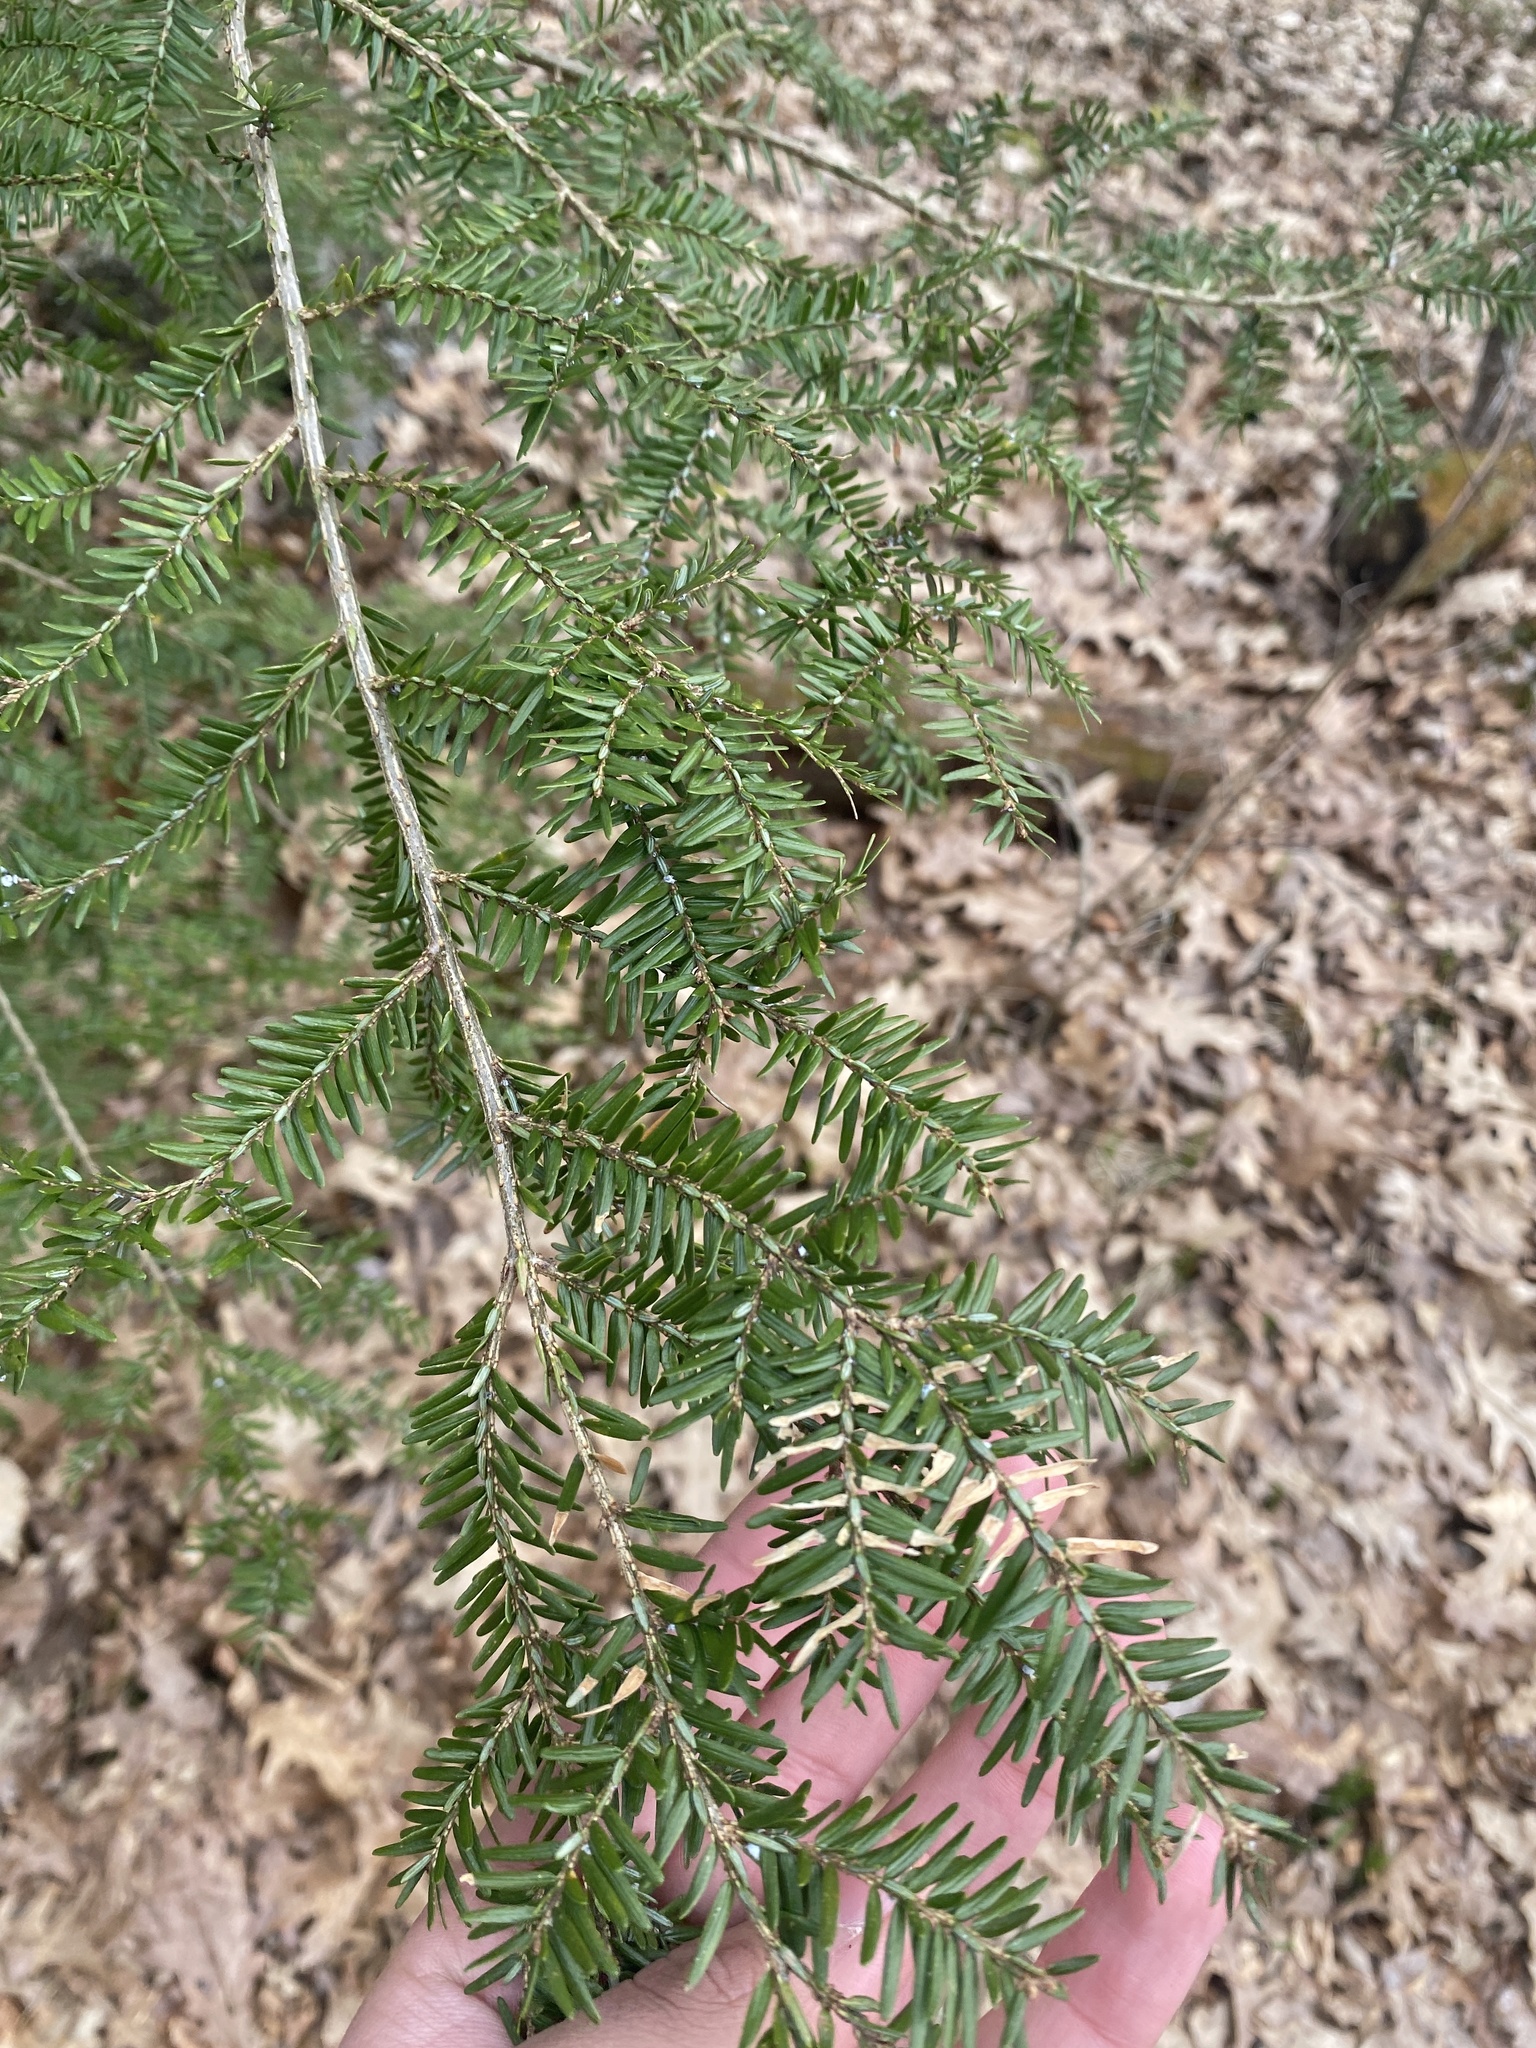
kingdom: Plantae
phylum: Tracheophyta
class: Pinopsida
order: Pinales
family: Pinaceae
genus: Tsuga
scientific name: Tsuga canadensis
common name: Eastern hemlock
